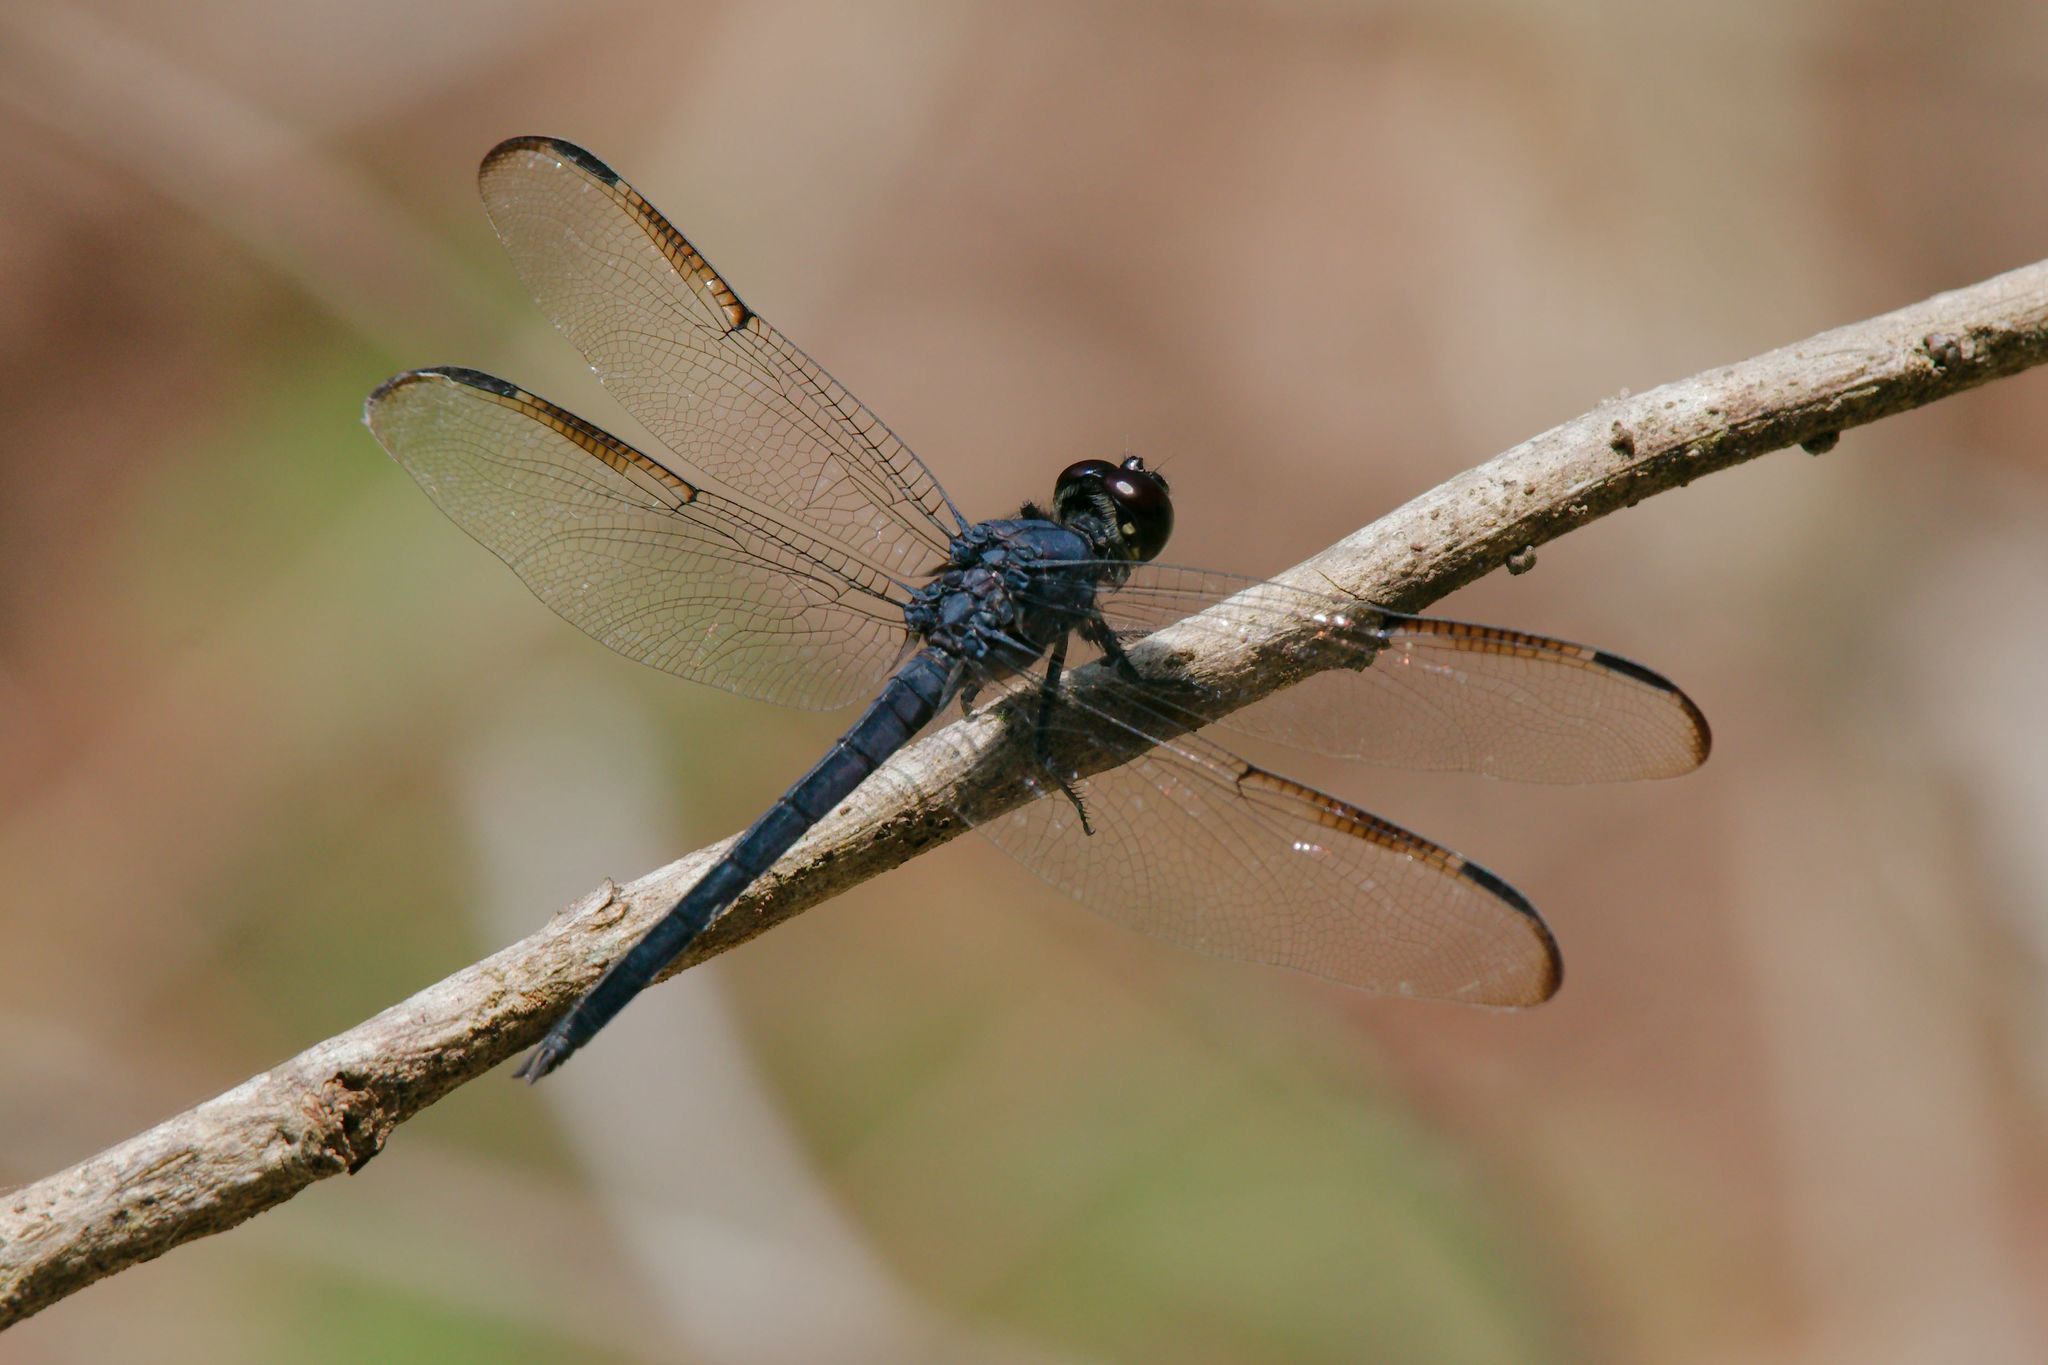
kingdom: Animalia
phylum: Arthropoda
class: Insecta
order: Odonata
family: Libellulidae
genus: Libellula
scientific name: Libellula incesta
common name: Slaty skimmer
